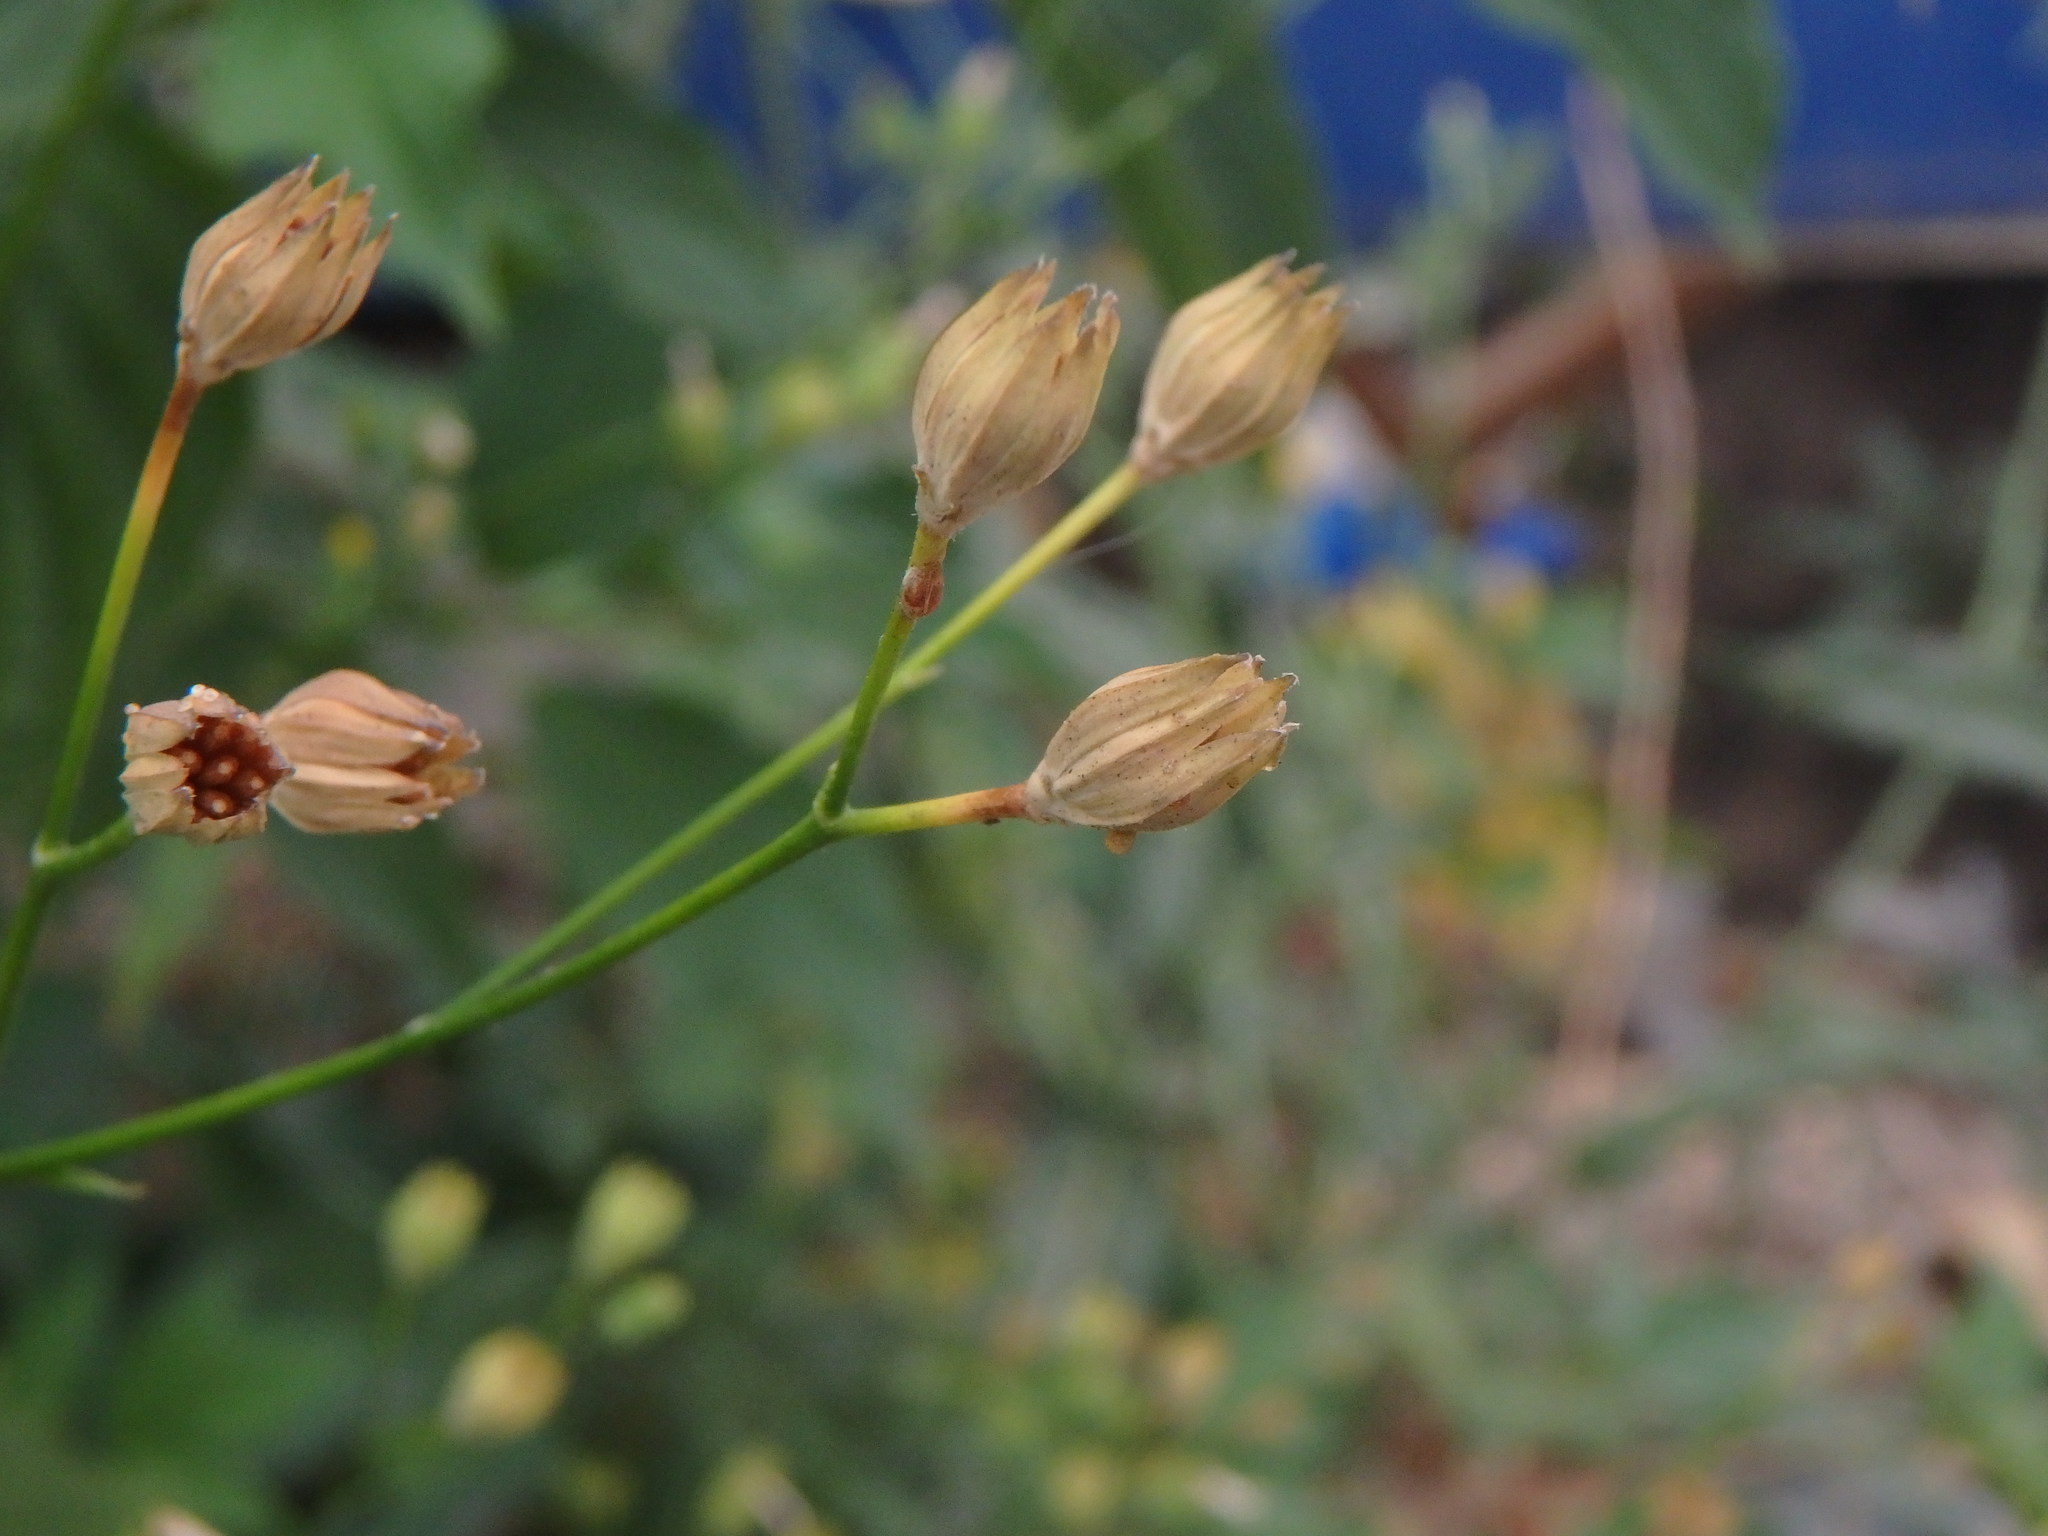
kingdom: Plantae
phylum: Tracheophyta
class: Magnoliopsida
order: Asterales
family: Asteraceae
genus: Lapsana
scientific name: Lapsana communis
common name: Nipplewort
